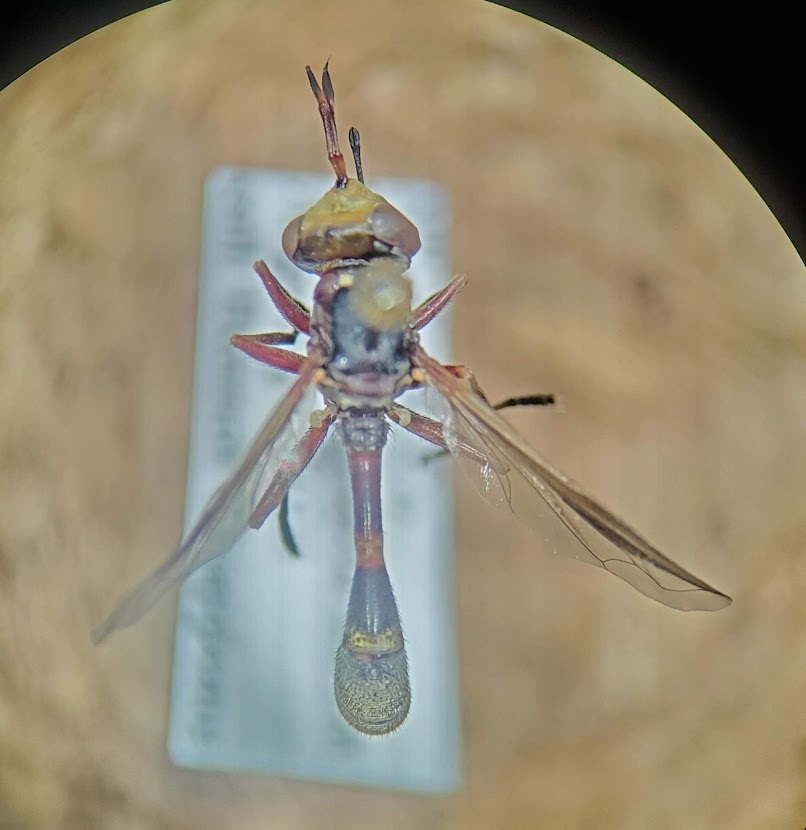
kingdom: Animalia
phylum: Arthropoda
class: Insecta
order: Diptera
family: Conopidae
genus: Physoconops
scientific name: Physoconops gracilis
